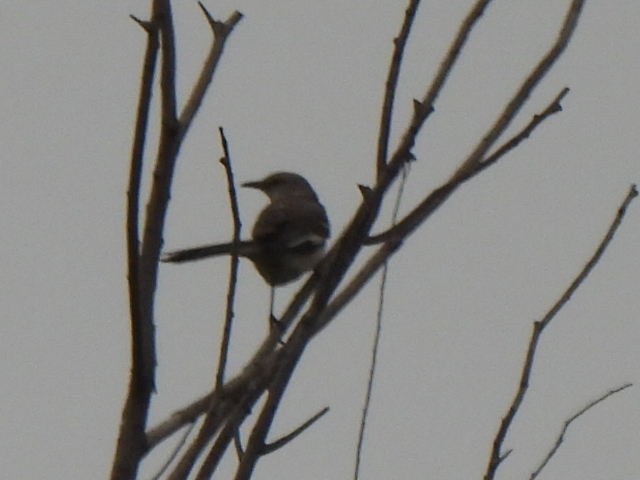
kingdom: Animalia
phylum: Chordata
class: Aves
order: Passeriformes
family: Mimidae
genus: Mimus
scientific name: Mimus polyglottos
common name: Northern mockingbird
